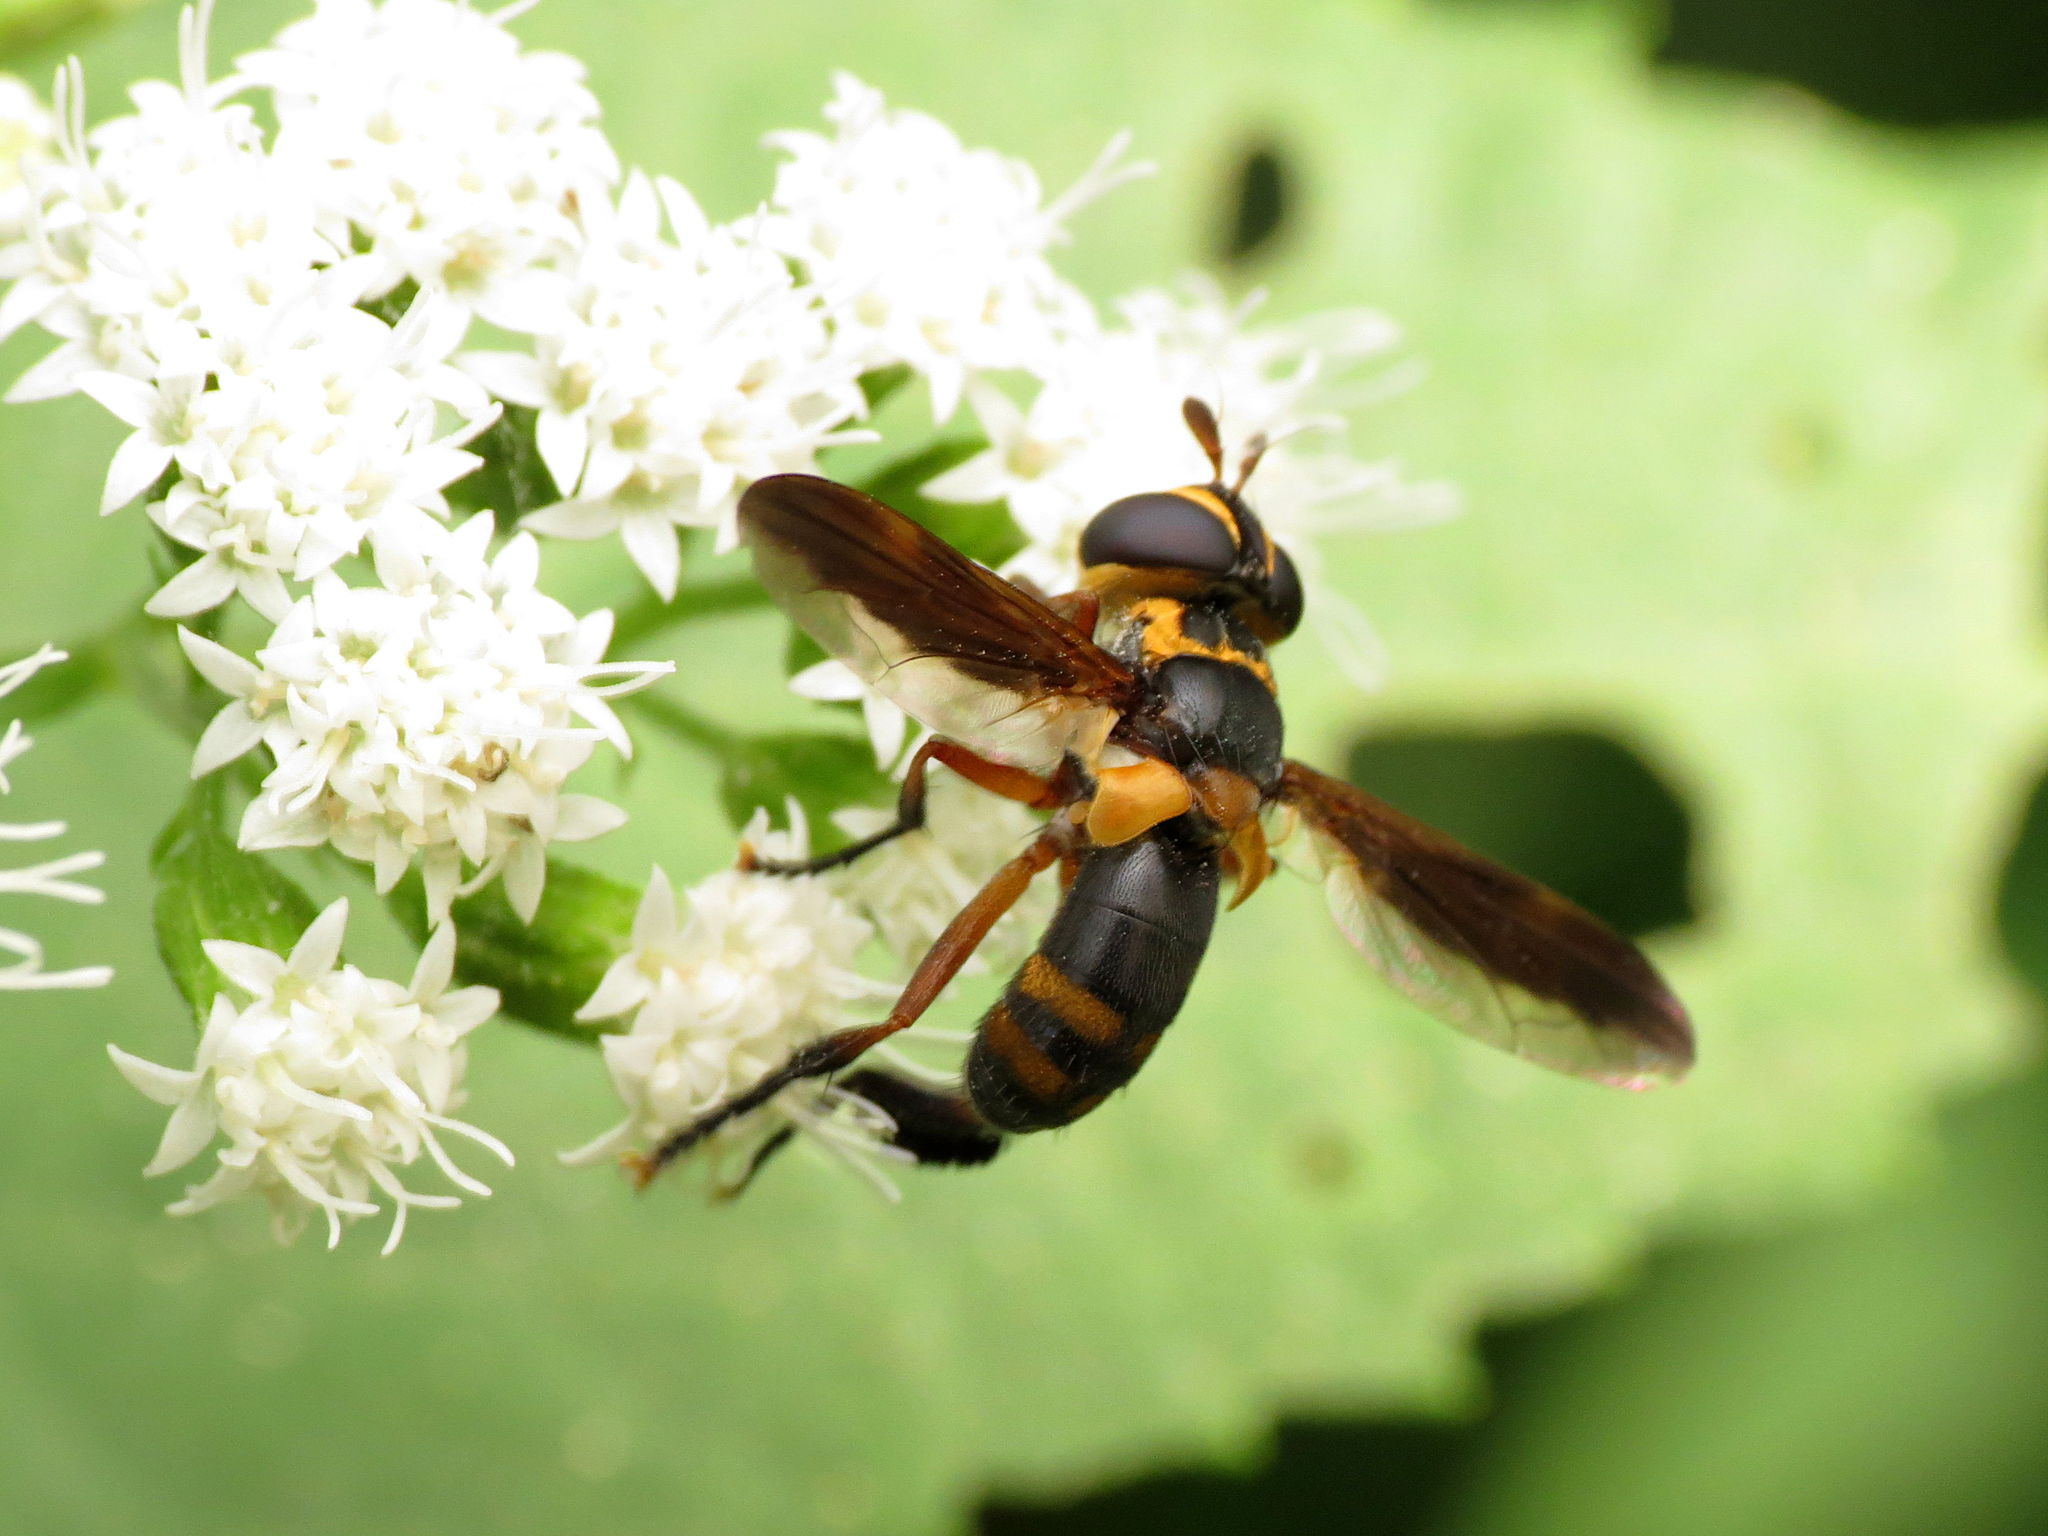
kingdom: Animalia
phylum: Arthropoda
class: Insecta
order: Diptera
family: Tachinidae
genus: Trichopoda
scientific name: Trichopoda plumipes
